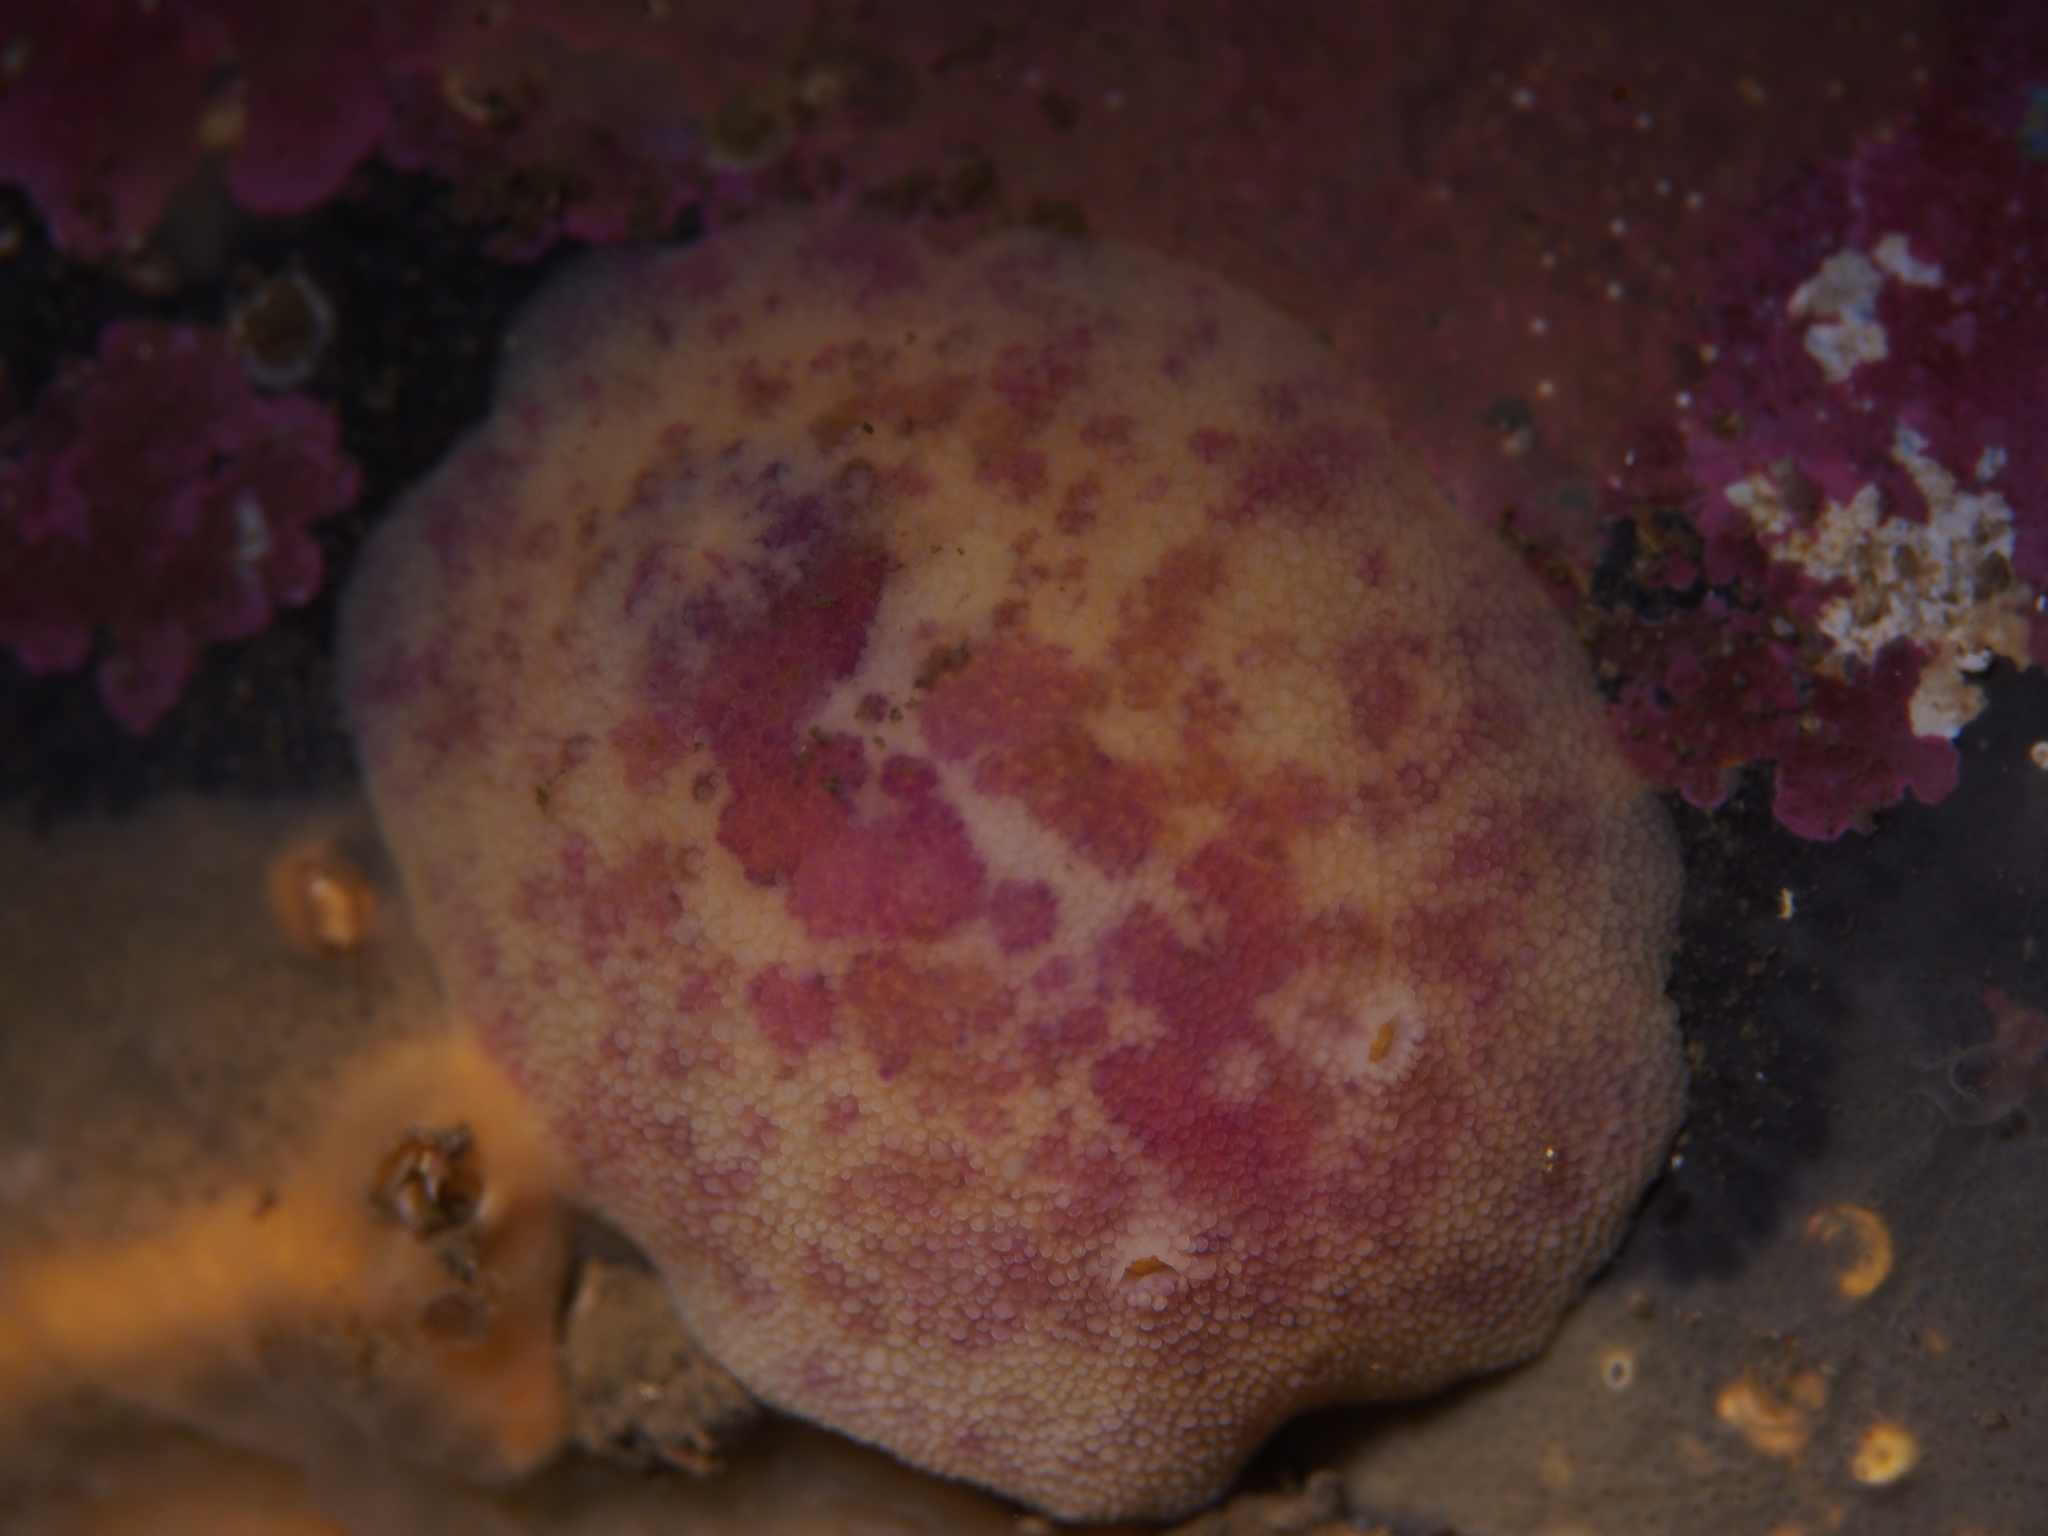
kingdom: Animalia
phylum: Mollusca
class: Gastropoda
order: Nudibranchia
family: Dorididae
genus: Doris
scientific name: Doris pseudoargus
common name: Sea lemon
